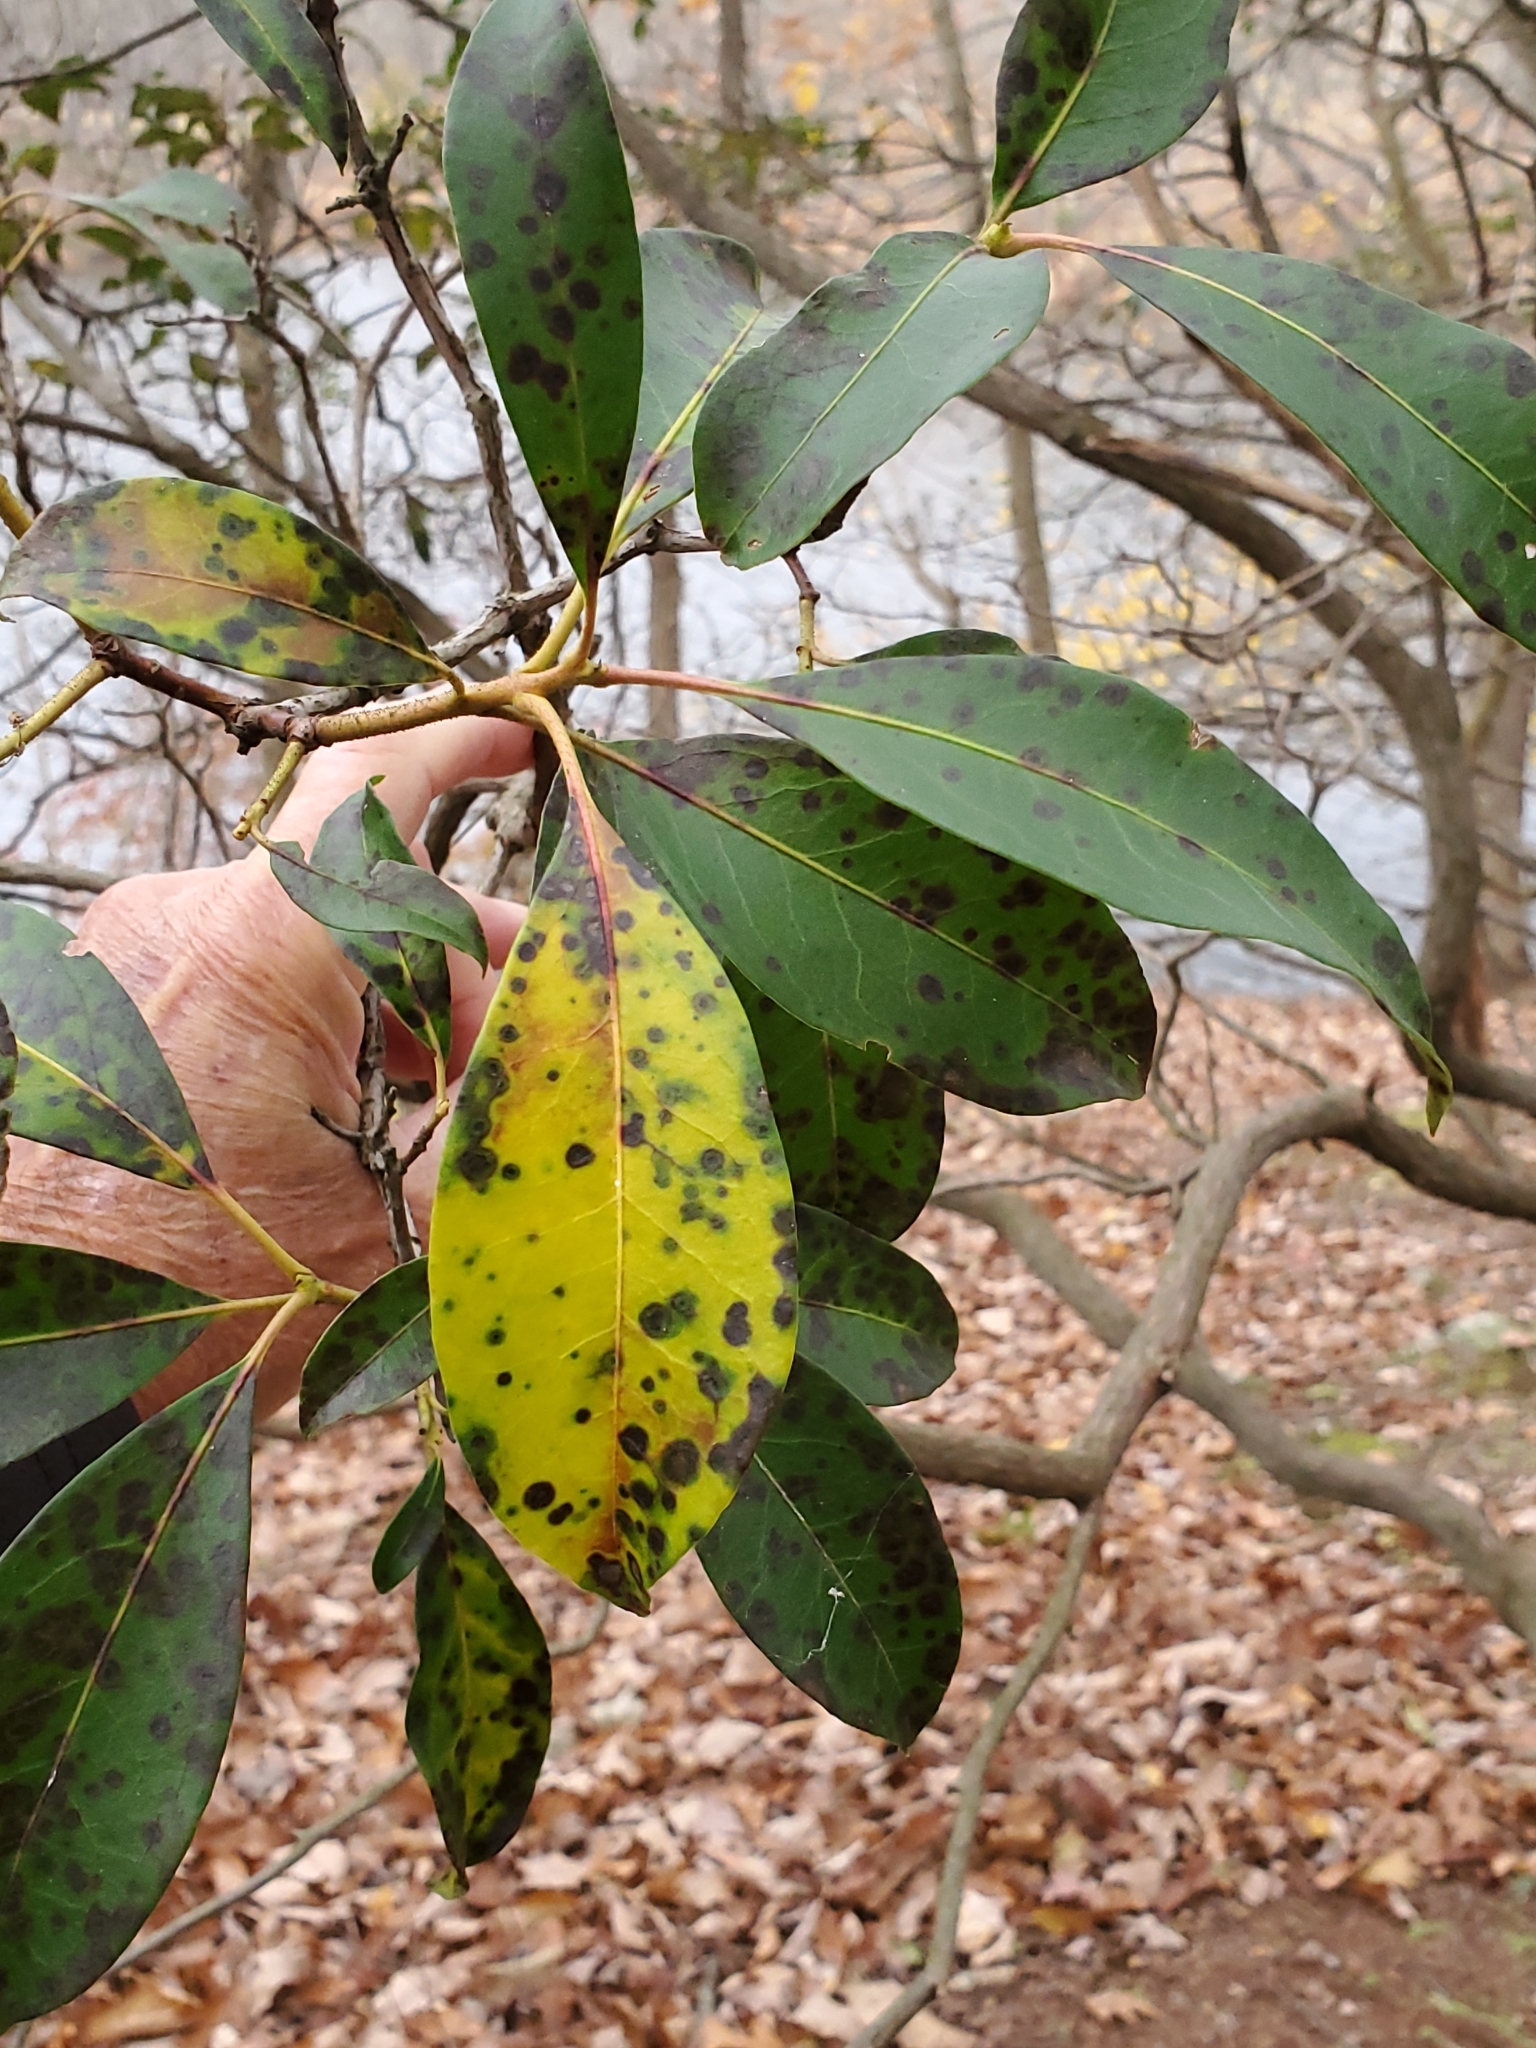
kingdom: Plantae
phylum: Tracheophyta
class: Magnoliopsida
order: Ericales
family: Ericaceae
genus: Kalmia
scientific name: Kalmia latifolia
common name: Mountain-laurel
